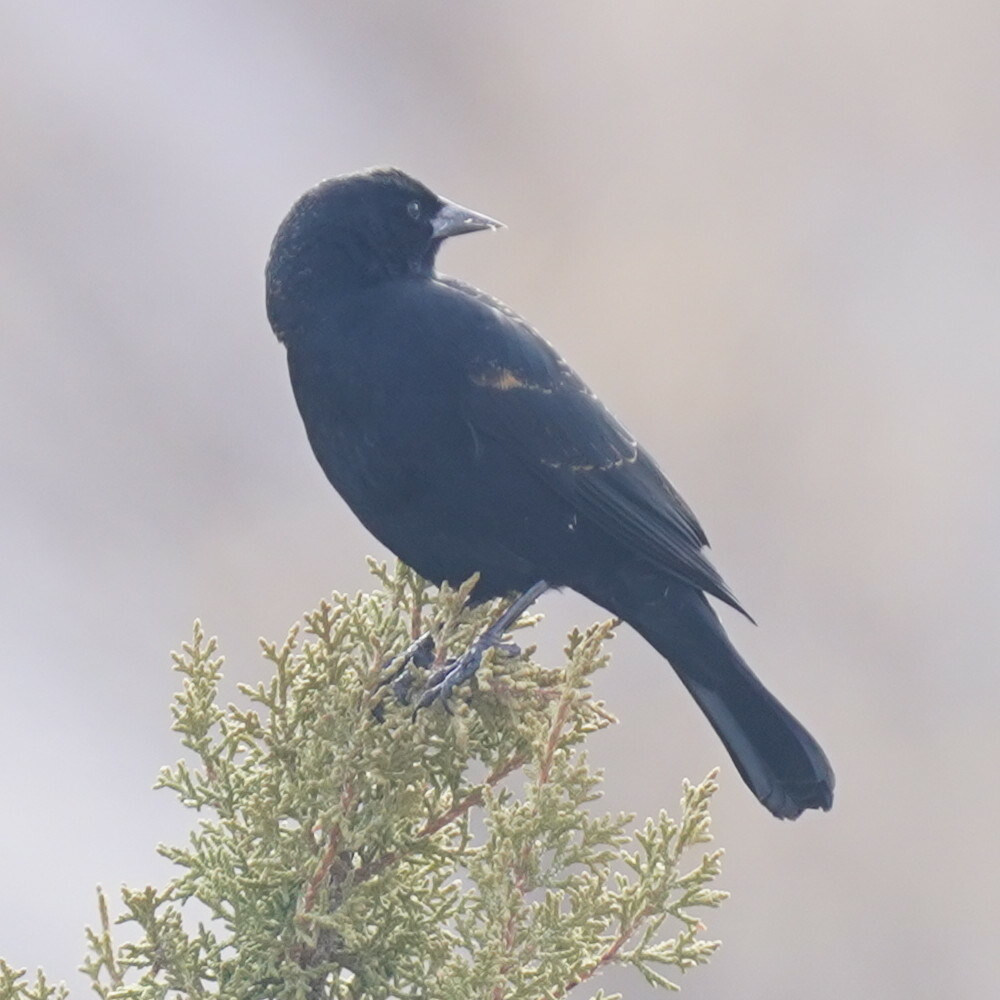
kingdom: Animalia
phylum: Chordata
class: Aves
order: Passeriformes
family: Icteridae
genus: Agelaius
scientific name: Agelaius phoeniceus
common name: Red-winged blackbird
